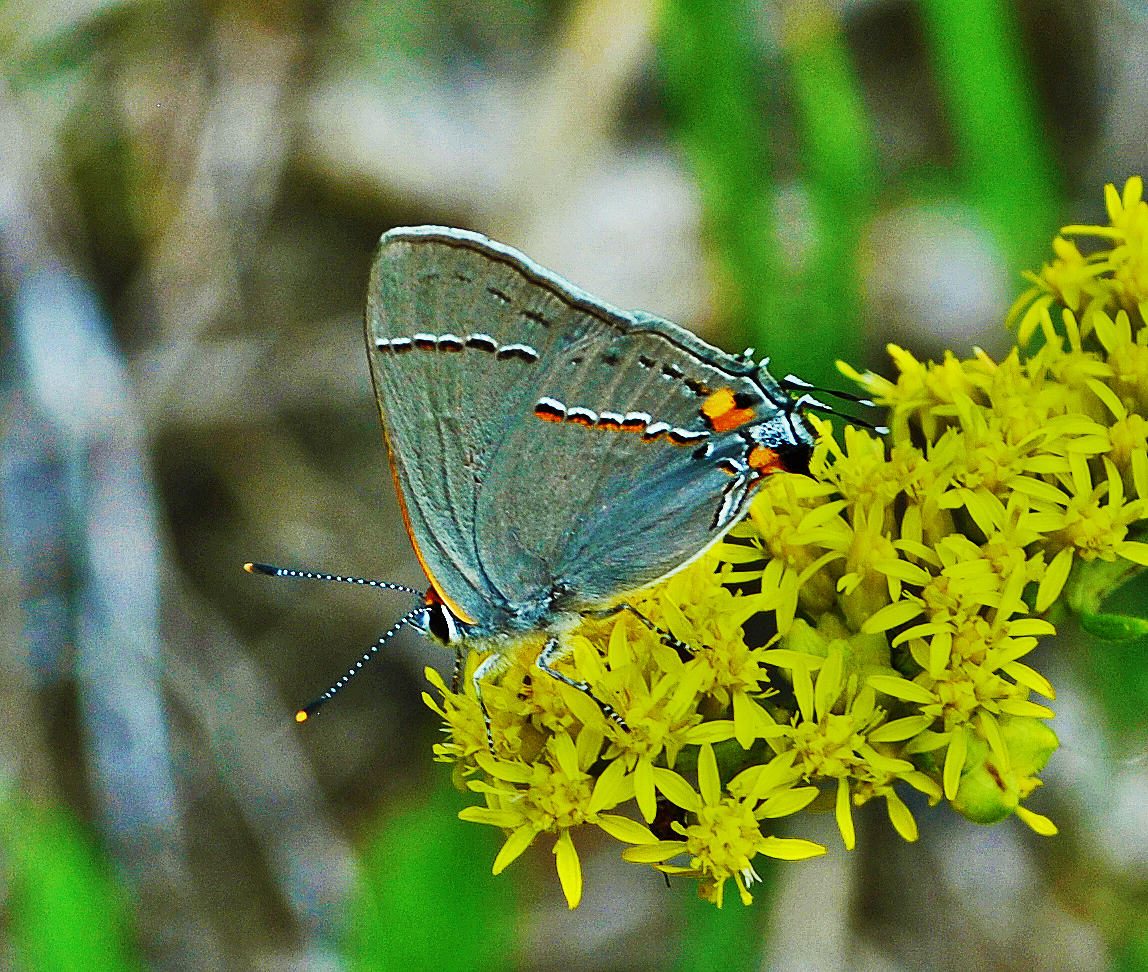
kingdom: Animalia
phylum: Arthropoda
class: Insecta
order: Lepidoptera
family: Lycaenidae
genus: Strymon
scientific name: Strymon melinus
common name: Gray hairstreak
